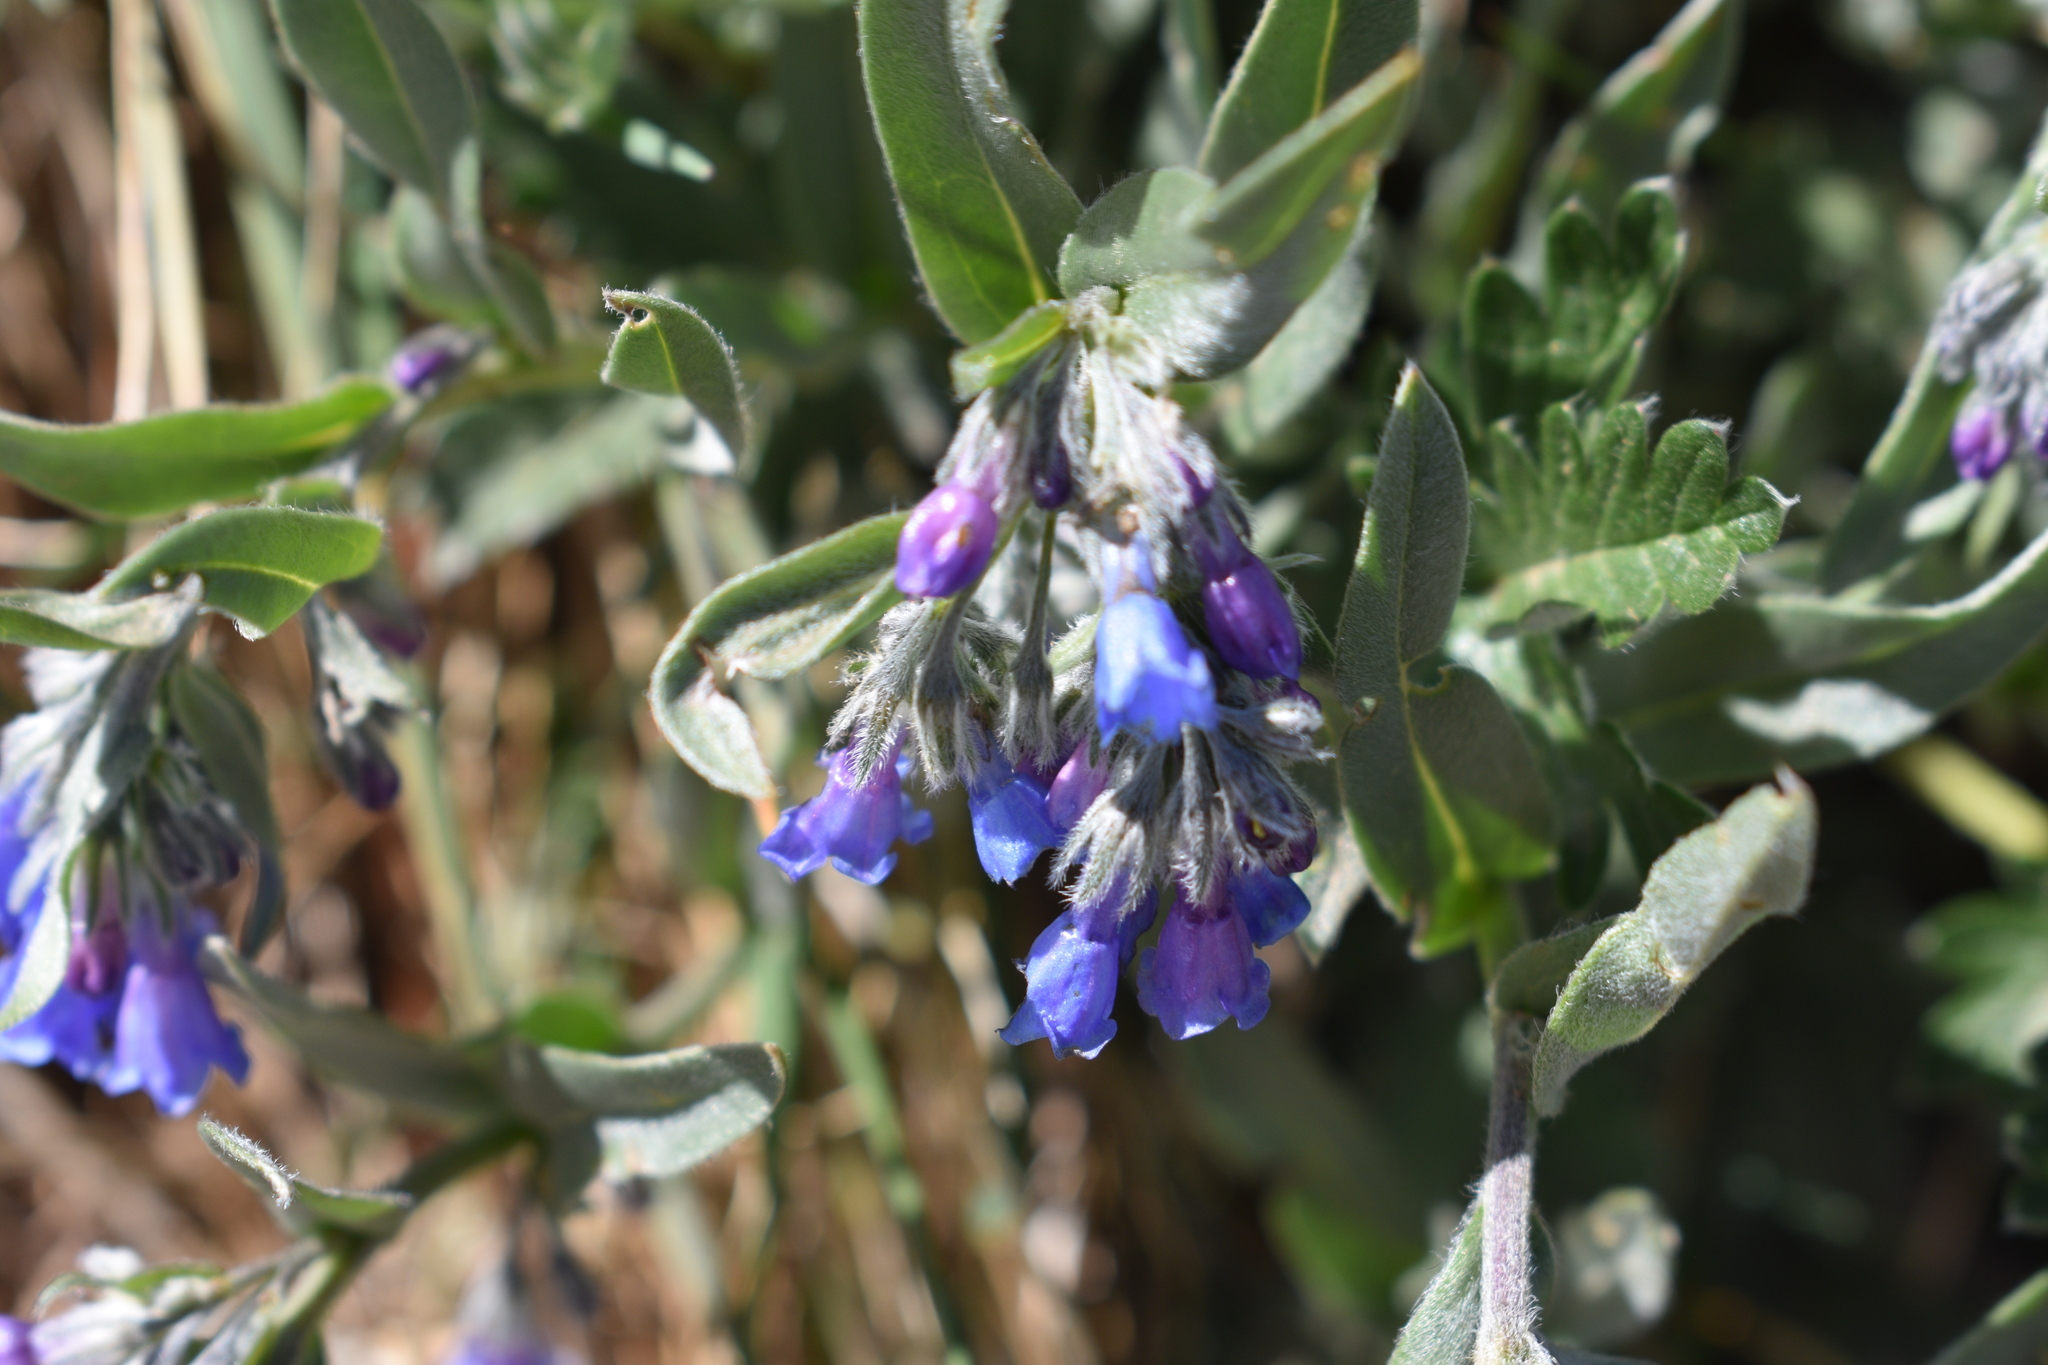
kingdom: Plantae
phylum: Tracheophyta
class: Magnoliopsida
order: Boraginales
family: Boraginaceae
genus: Mertensia
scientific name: Mertensia lanceolata
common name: Lance-leaved bluebells
